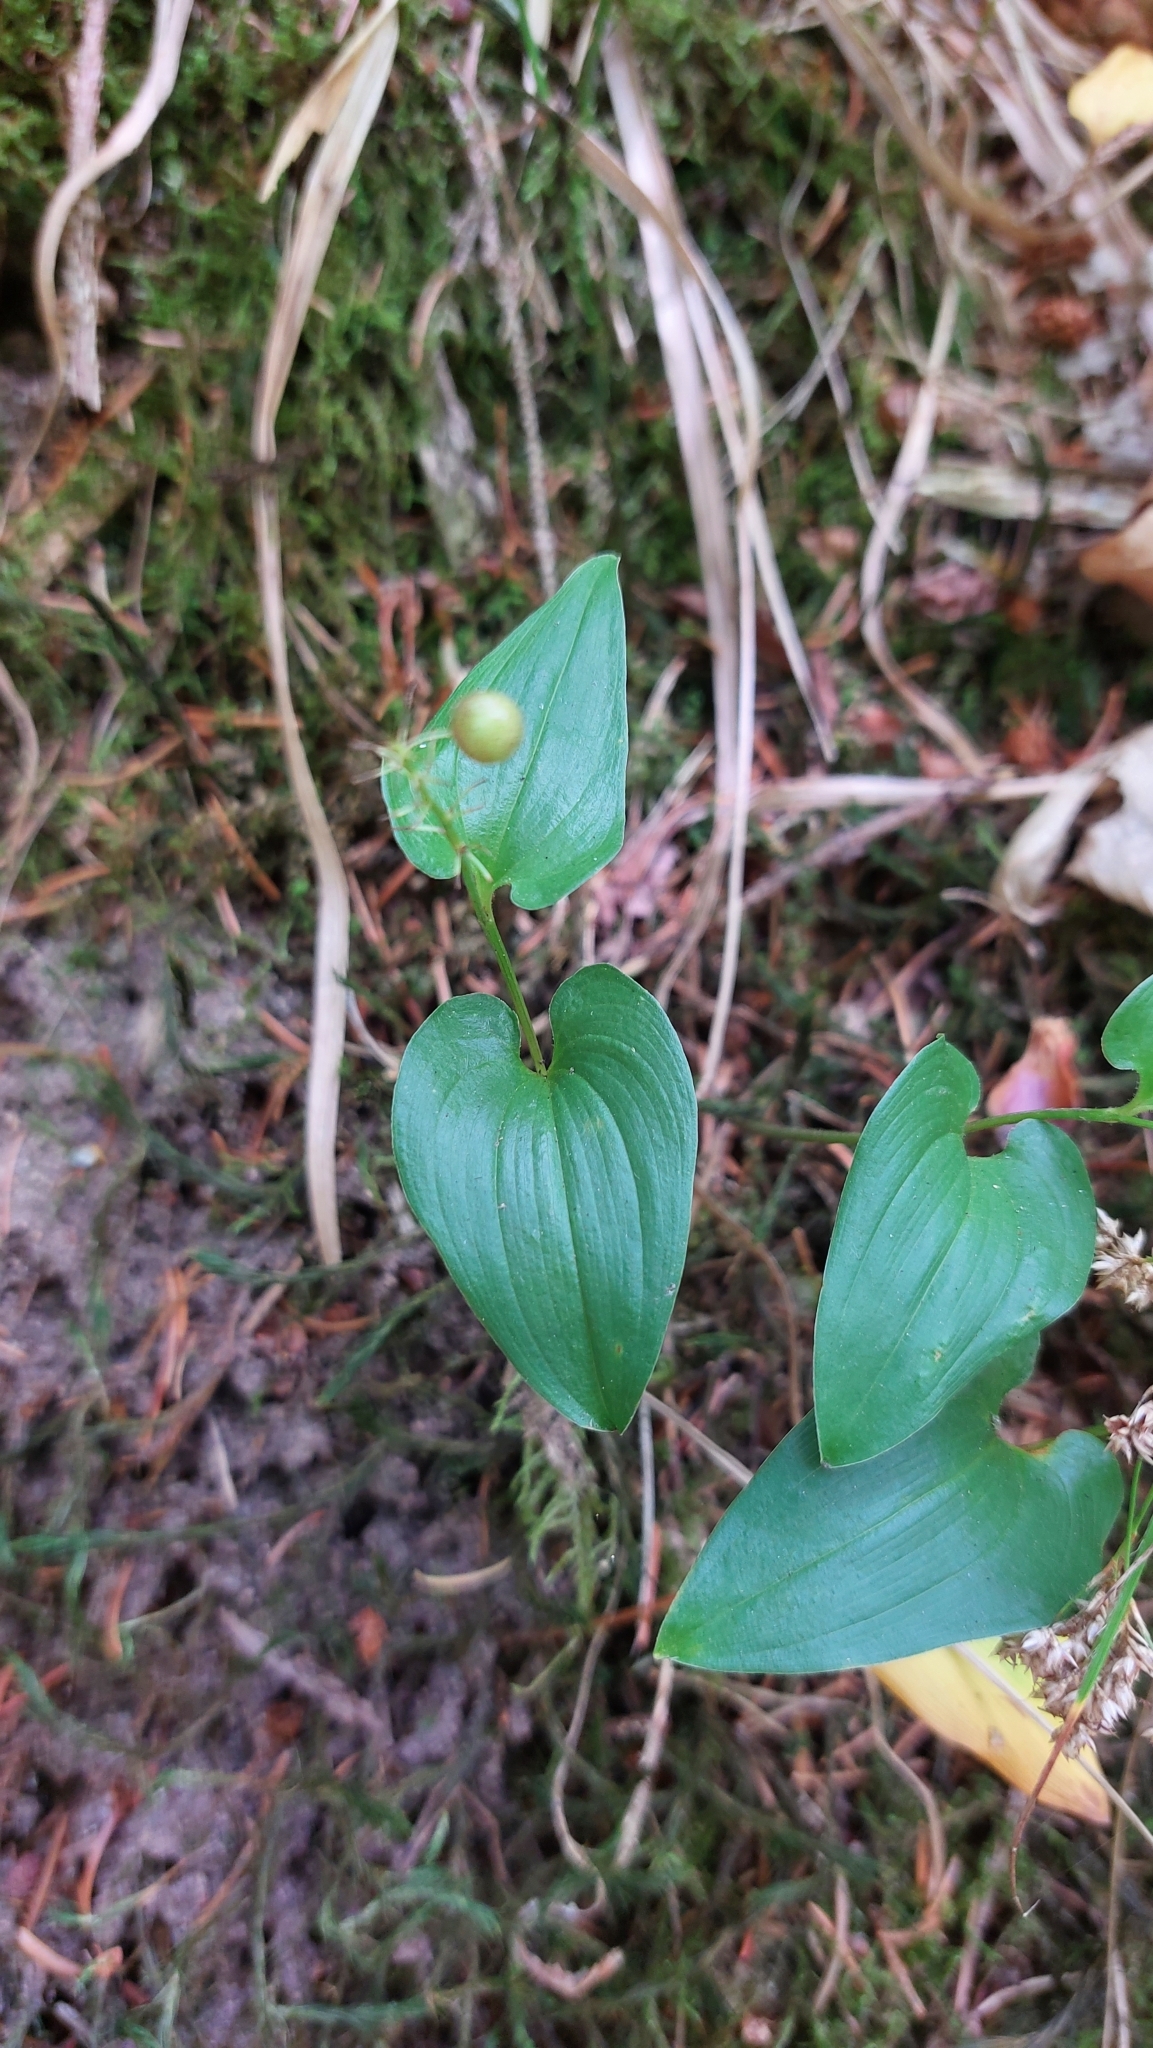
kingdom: Plantae
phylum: Tracheophyta
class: Liliopsida
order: Asparagales
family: Asparagaceae
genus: Maianthemum
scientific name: Maianthemum bifolium
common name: May lily
